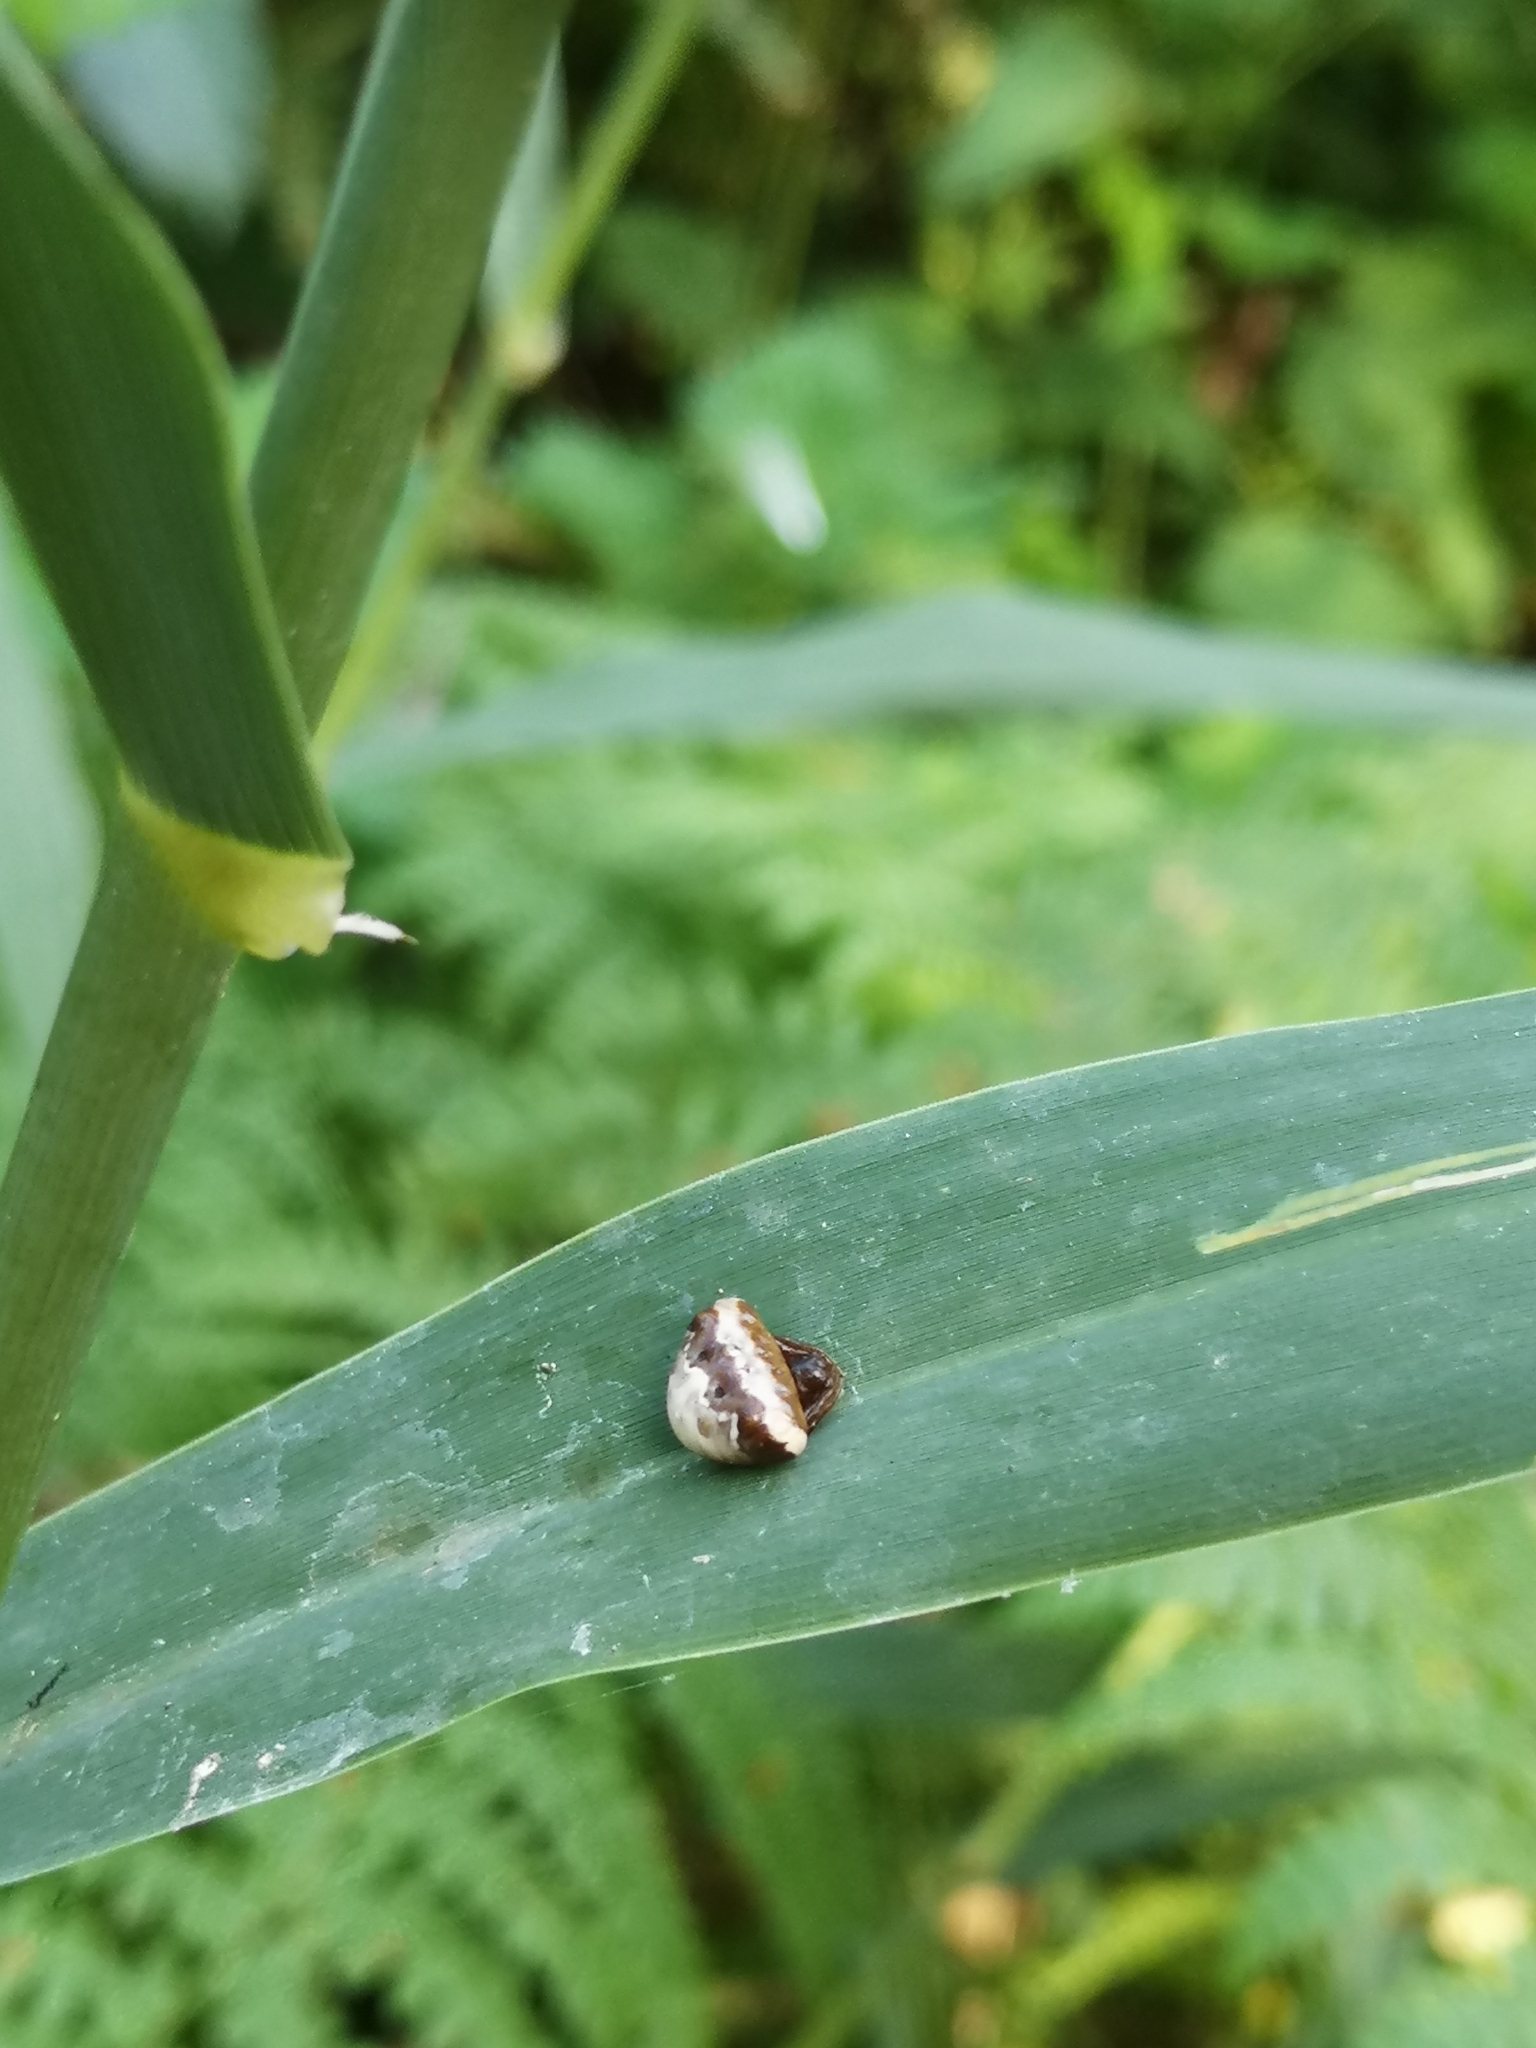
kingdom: Animalia
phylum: Arthropoda
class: Arachnida
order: Araneae
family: Araneidae
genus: Cyrtarachne
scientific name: Cyrtarachne ixoides
